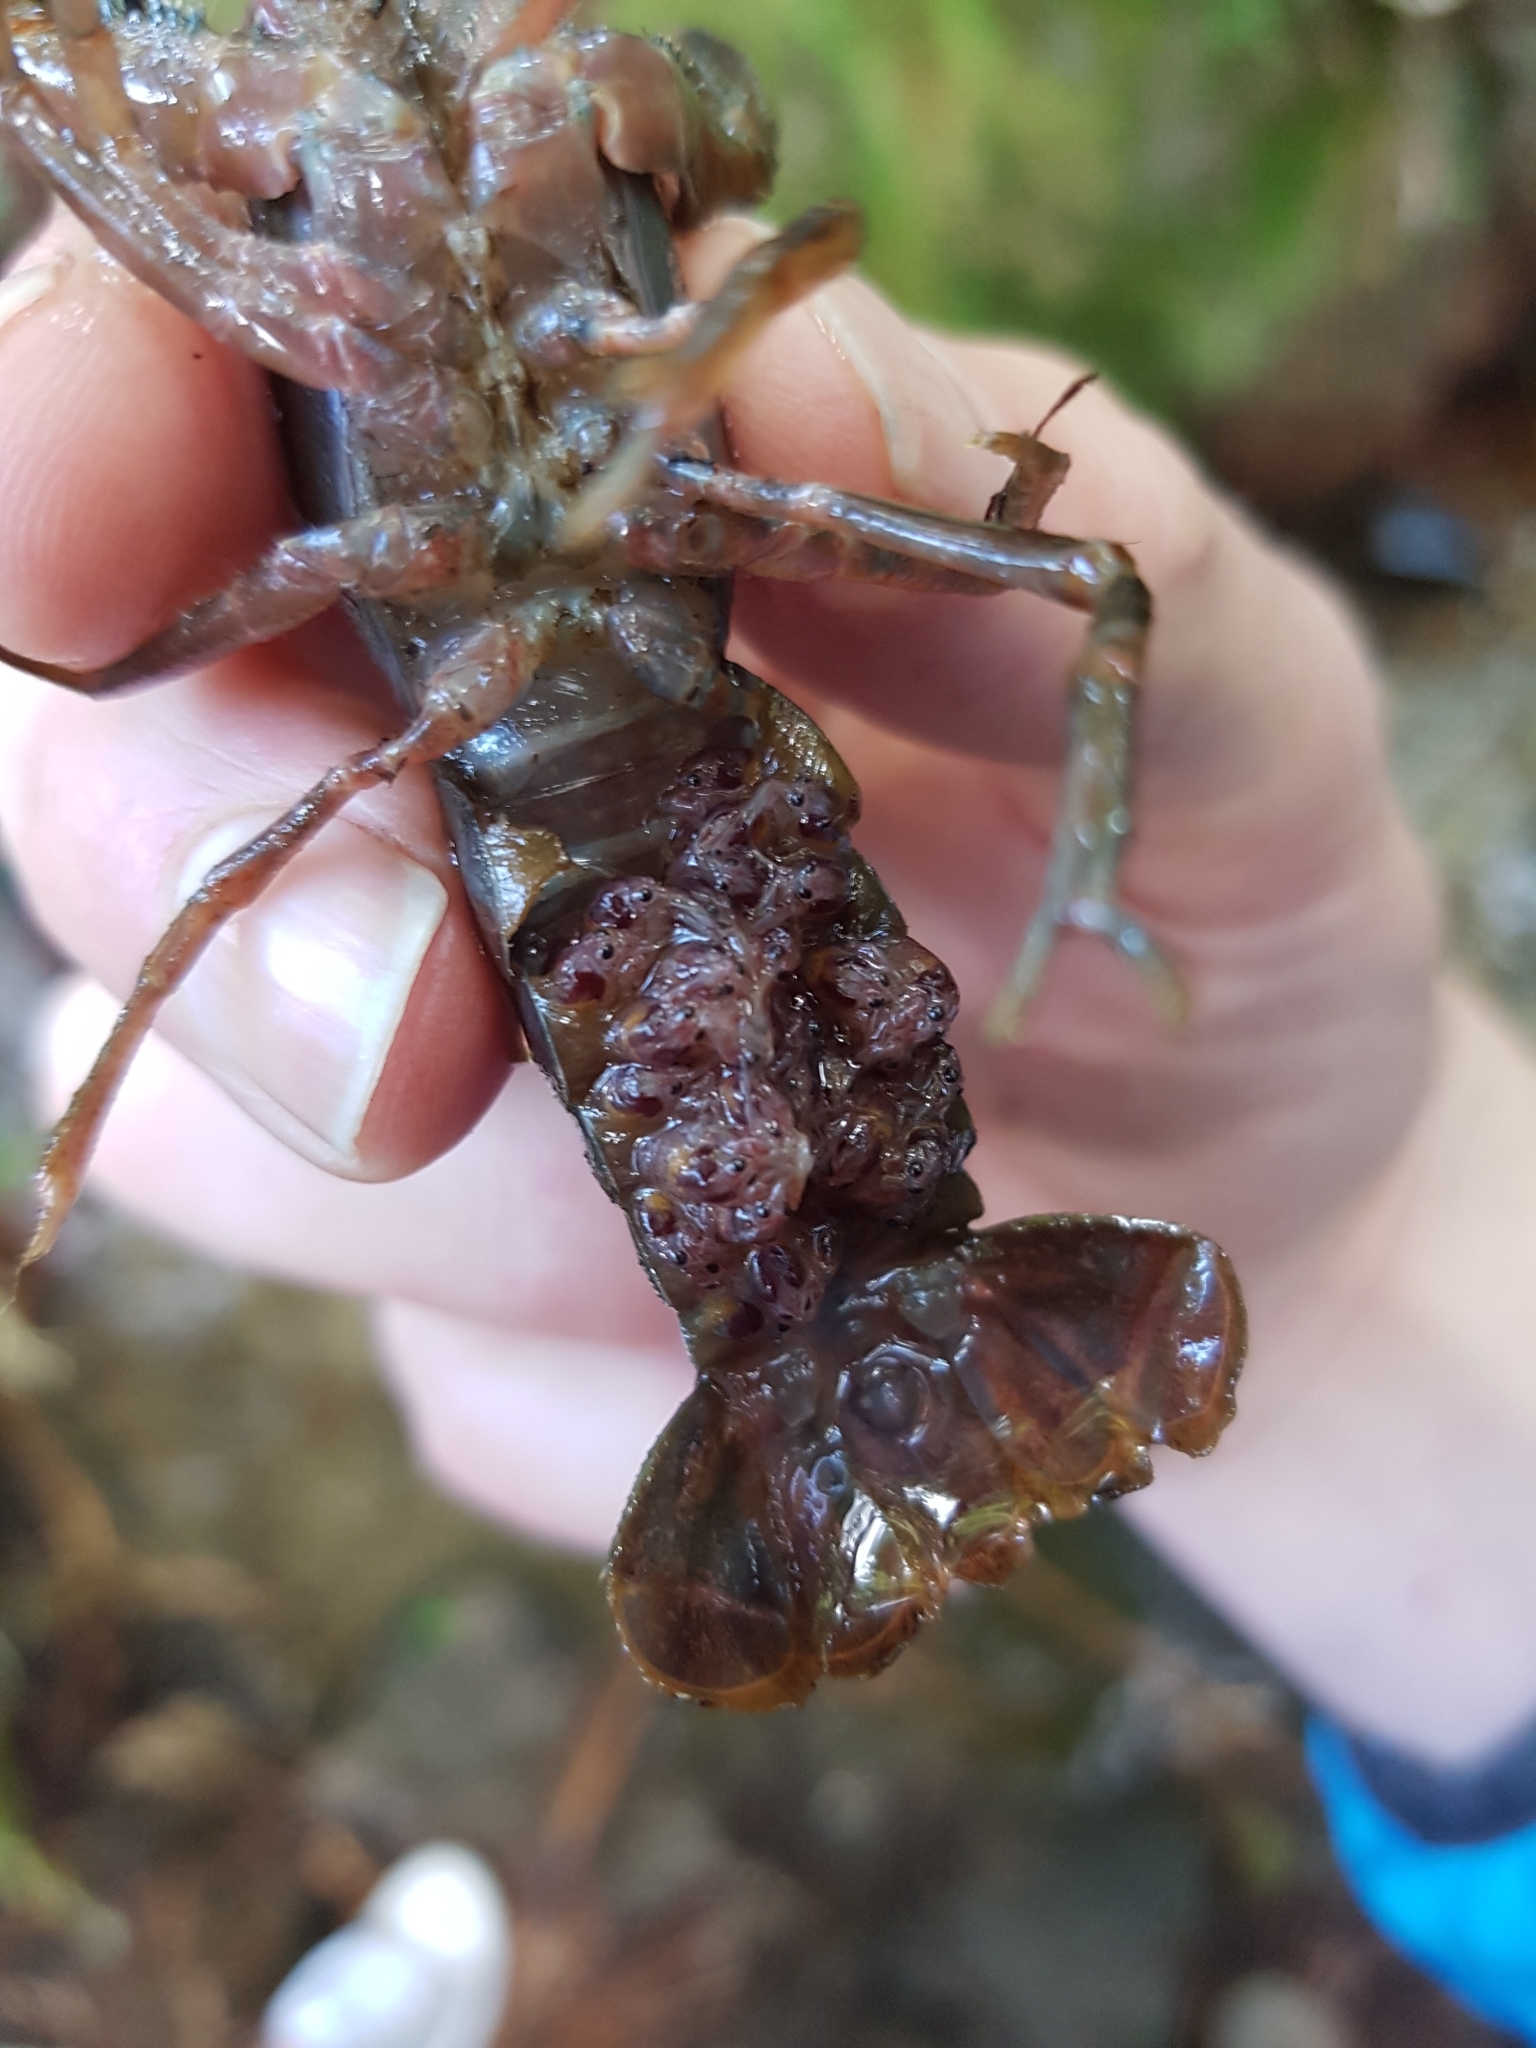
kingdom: Animalia
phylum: Arthropoda
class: Malacostraca
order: Decapoda
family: Parastacidae
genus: Paranephrops
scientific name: Paranephrops planifrons
